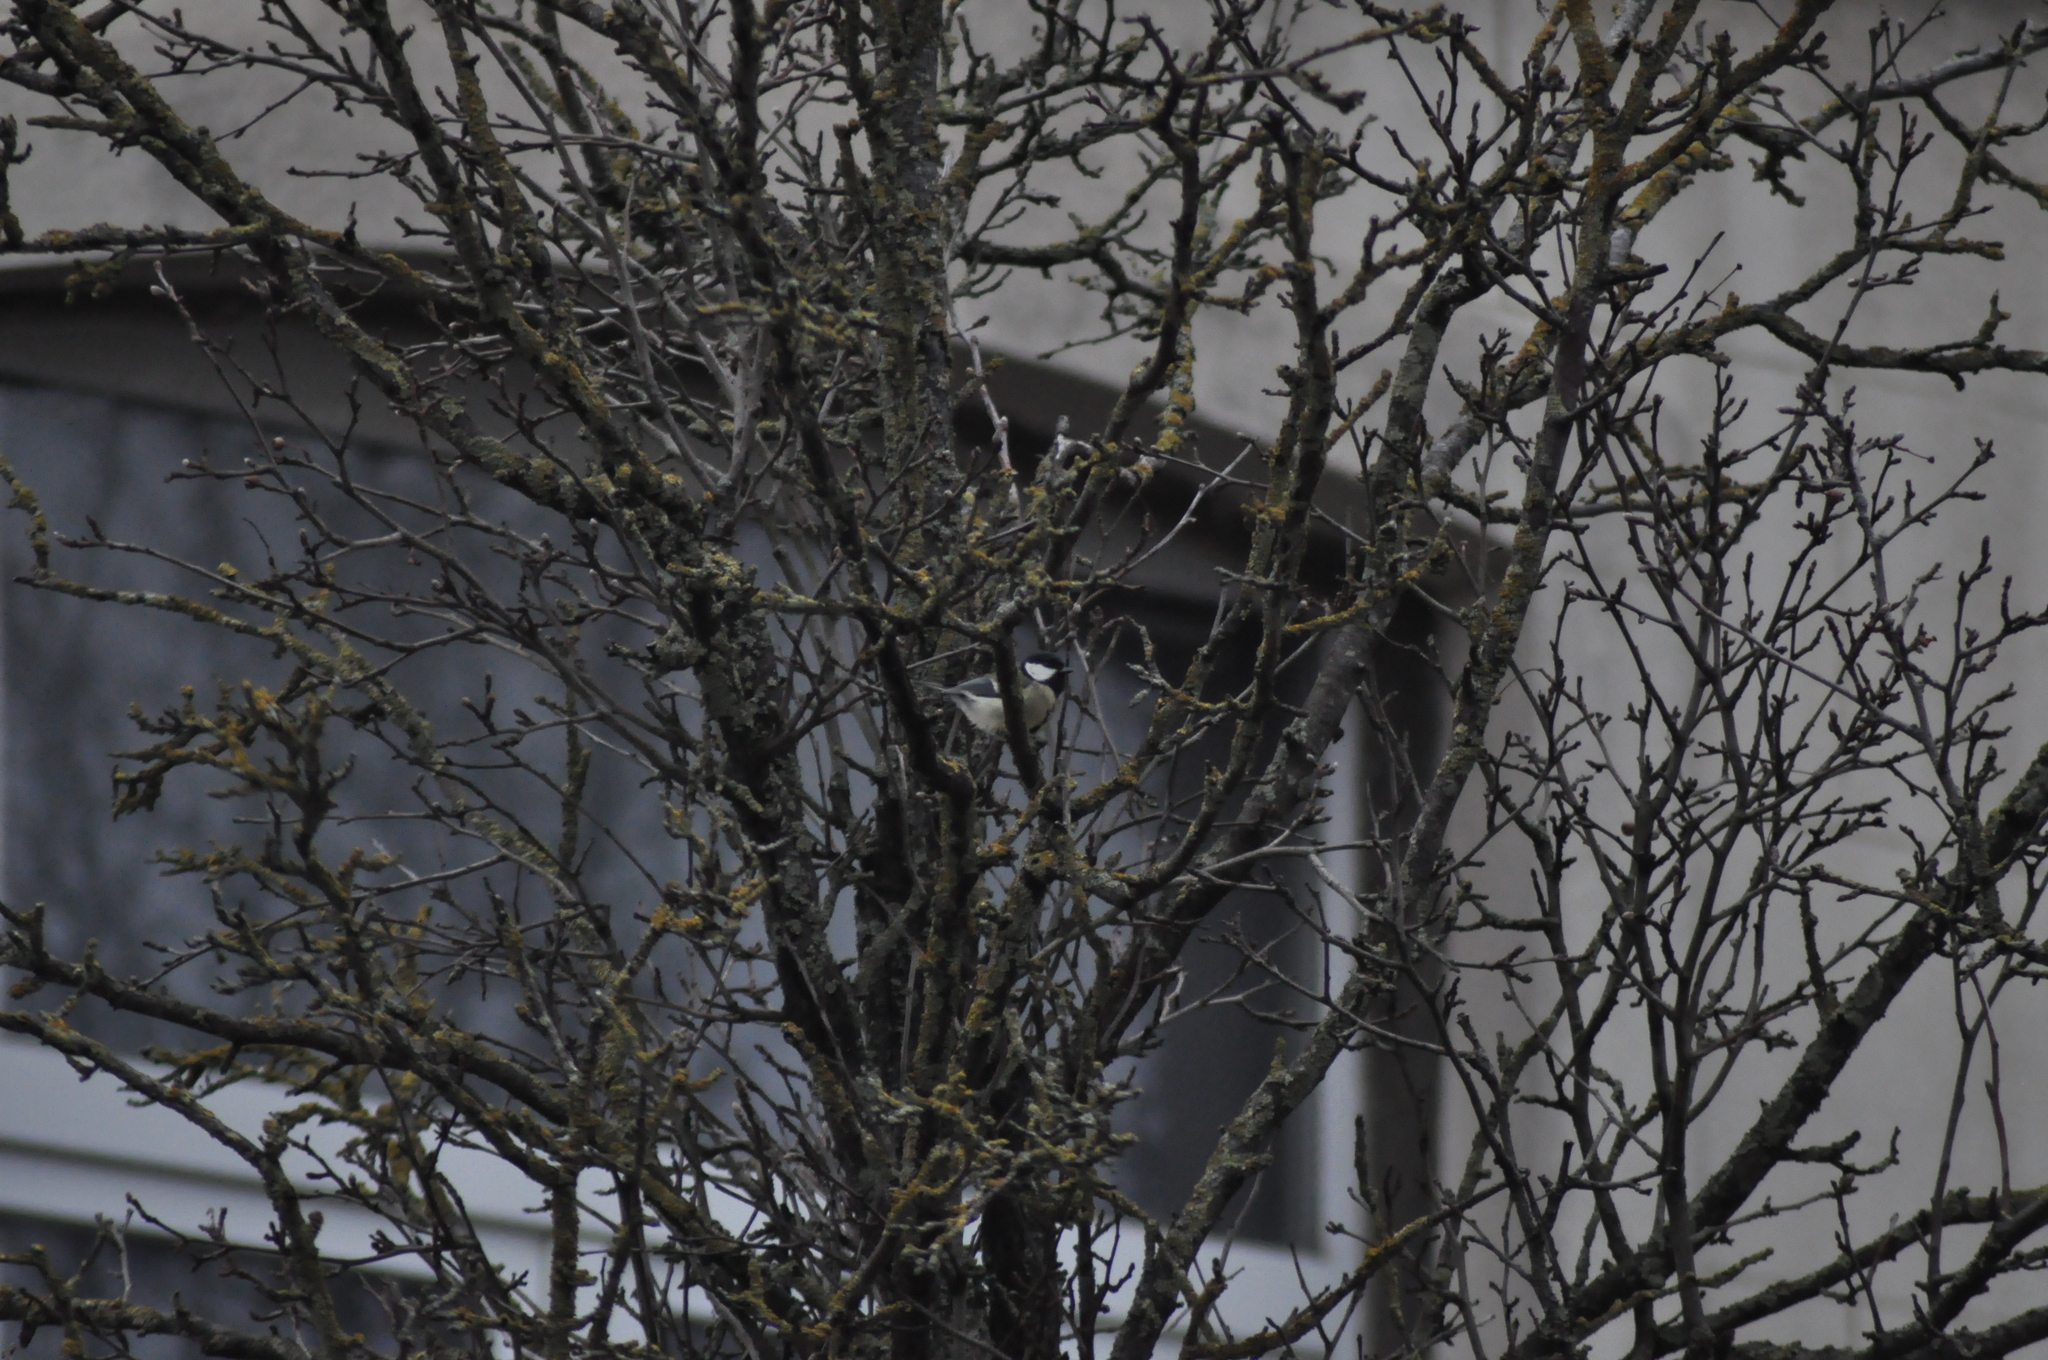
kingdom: Animalia
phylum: Chordata
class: Aves
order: Passeriformes
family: Paridae
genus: Parus
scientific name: Parus major
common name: Great tit
